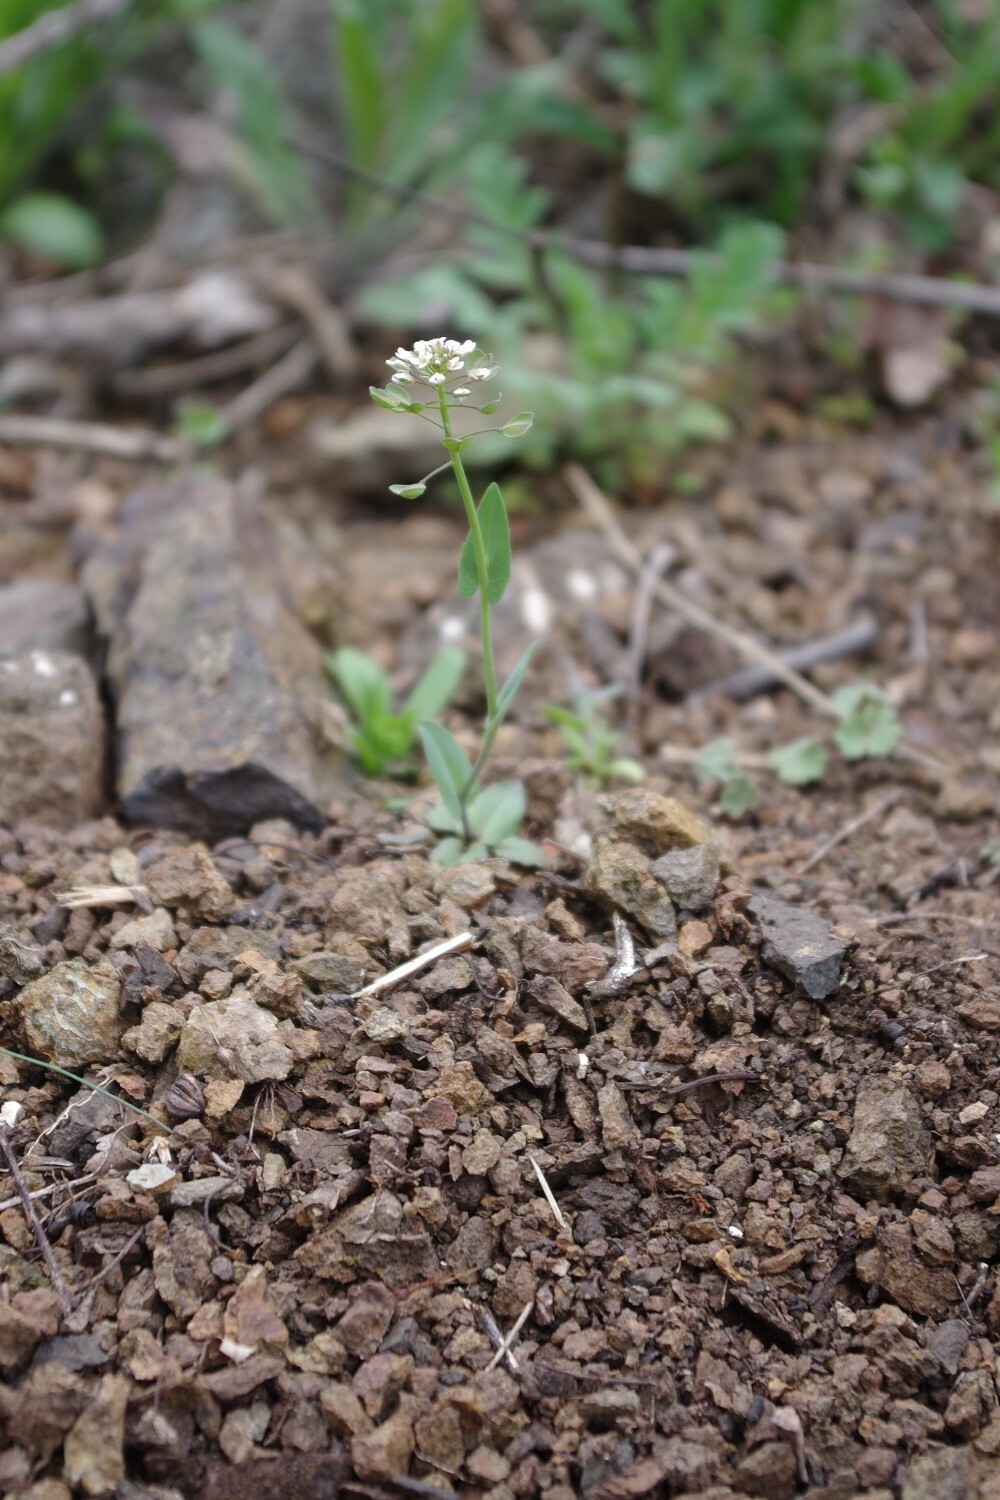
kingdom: Plantae
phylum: Tracheophyta
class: Magnoliopsida
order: Brassicales
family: Brassicaceae
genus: Noccaea
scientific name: Noccaea perfoliata
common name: Perfoliate pennycress
